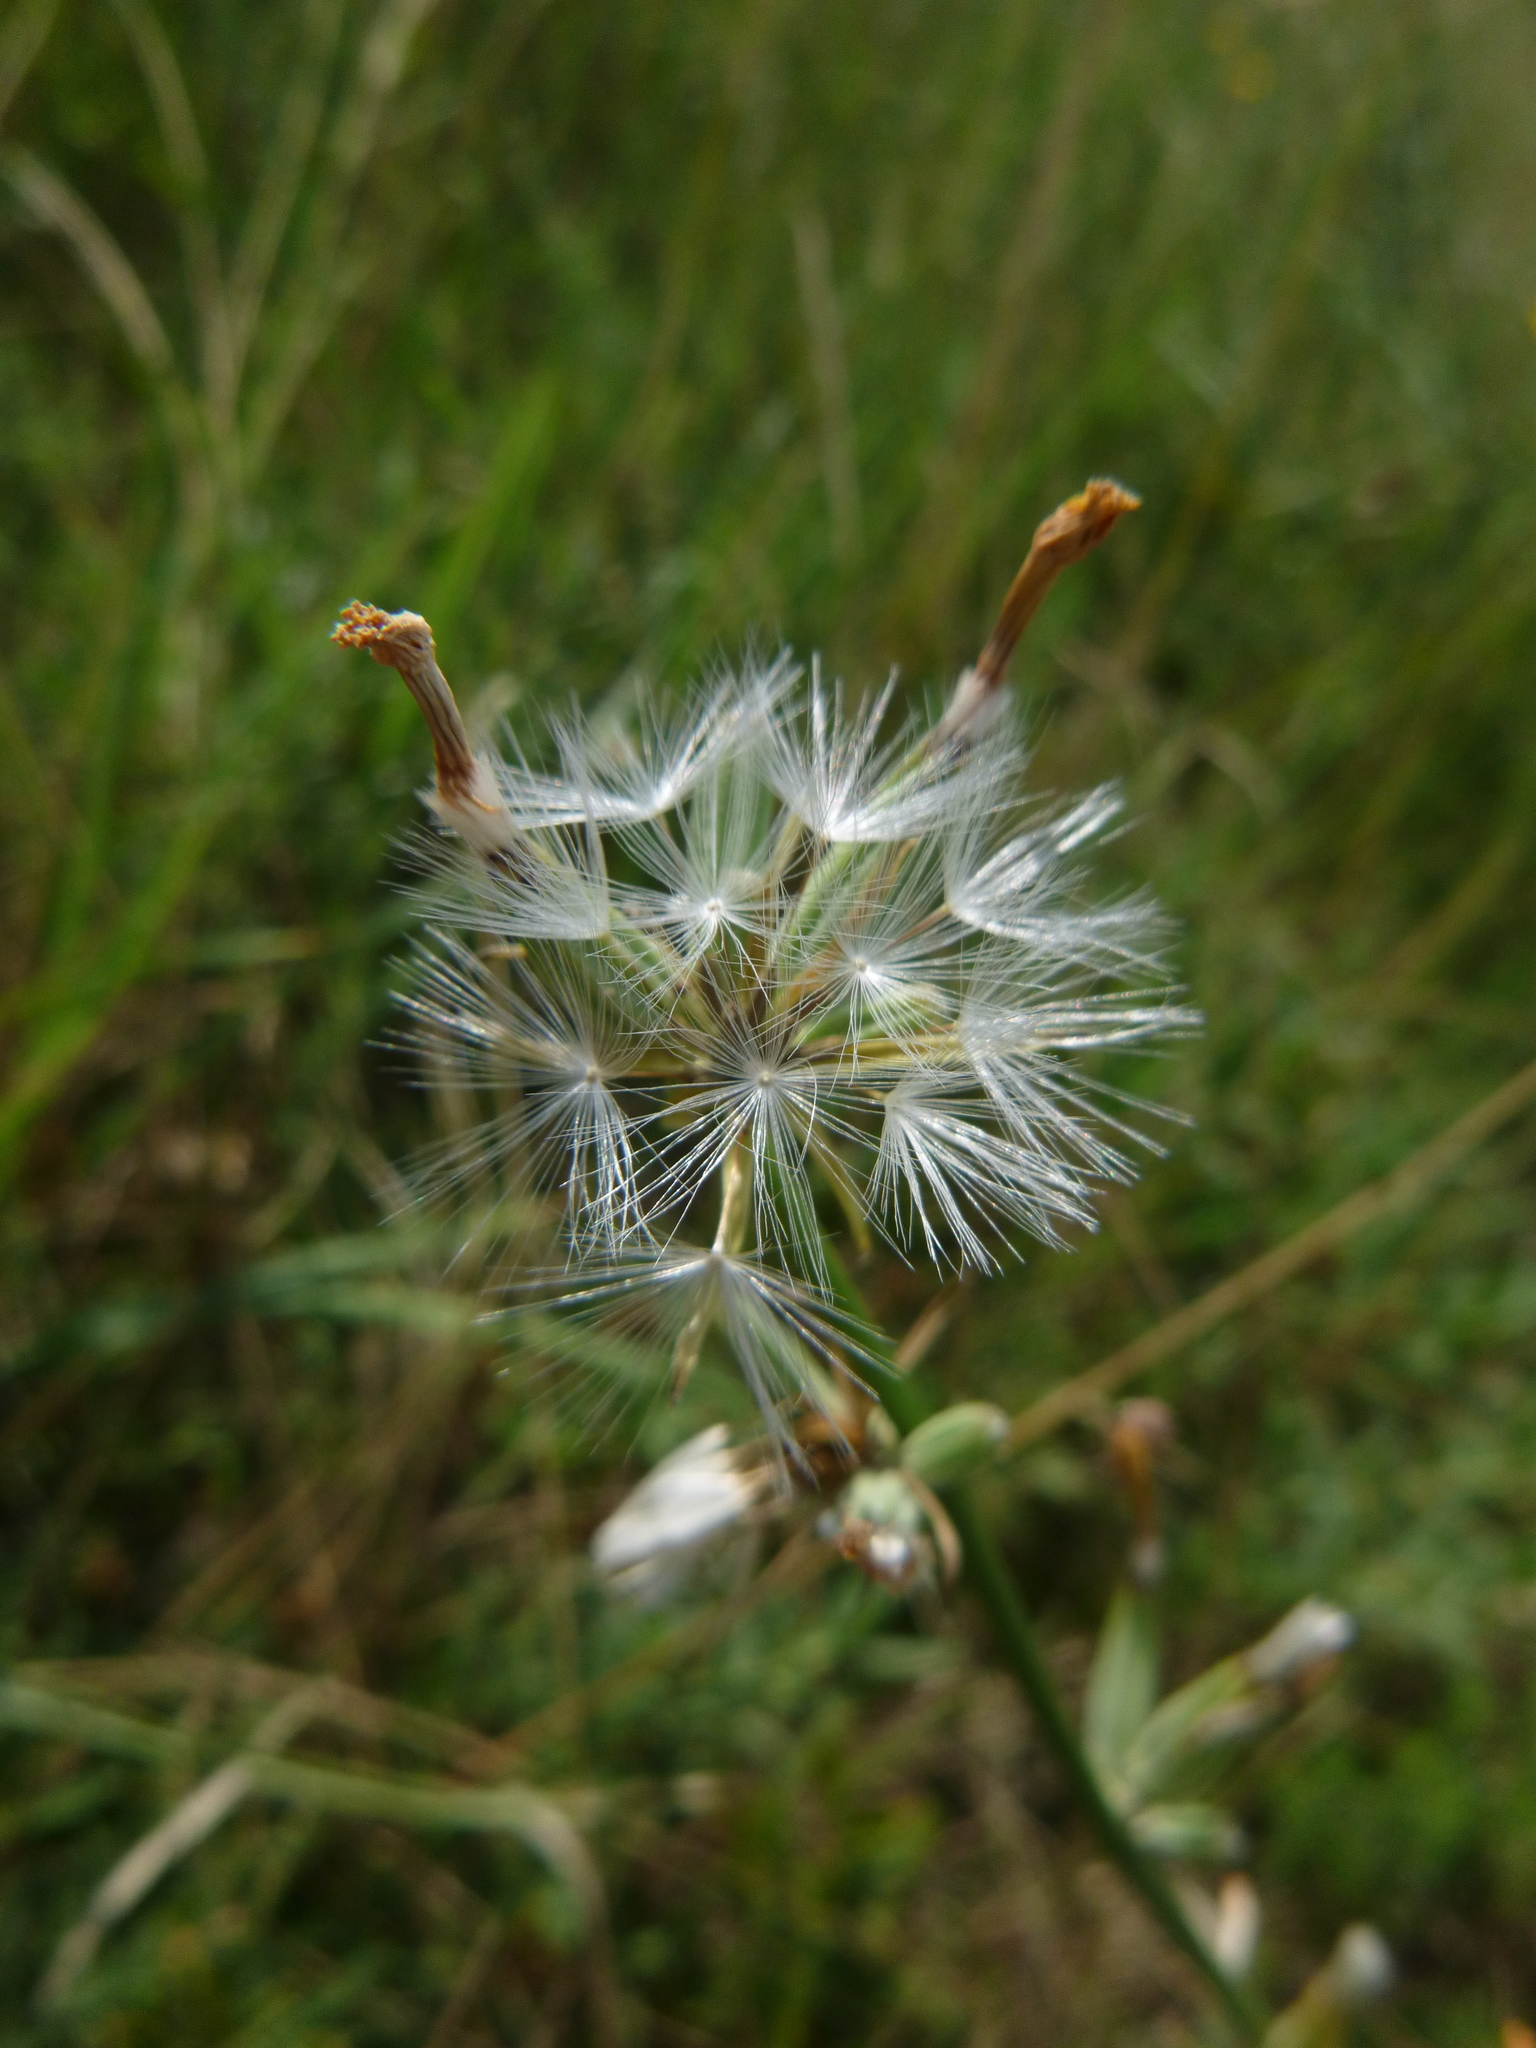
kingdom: Plantae
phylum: Tracheophyta
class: Magnoliopsida
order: Asterales
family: Asteraceae
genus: Chondrilla
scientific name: Chondrilla juncea
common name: Skeleton weed
